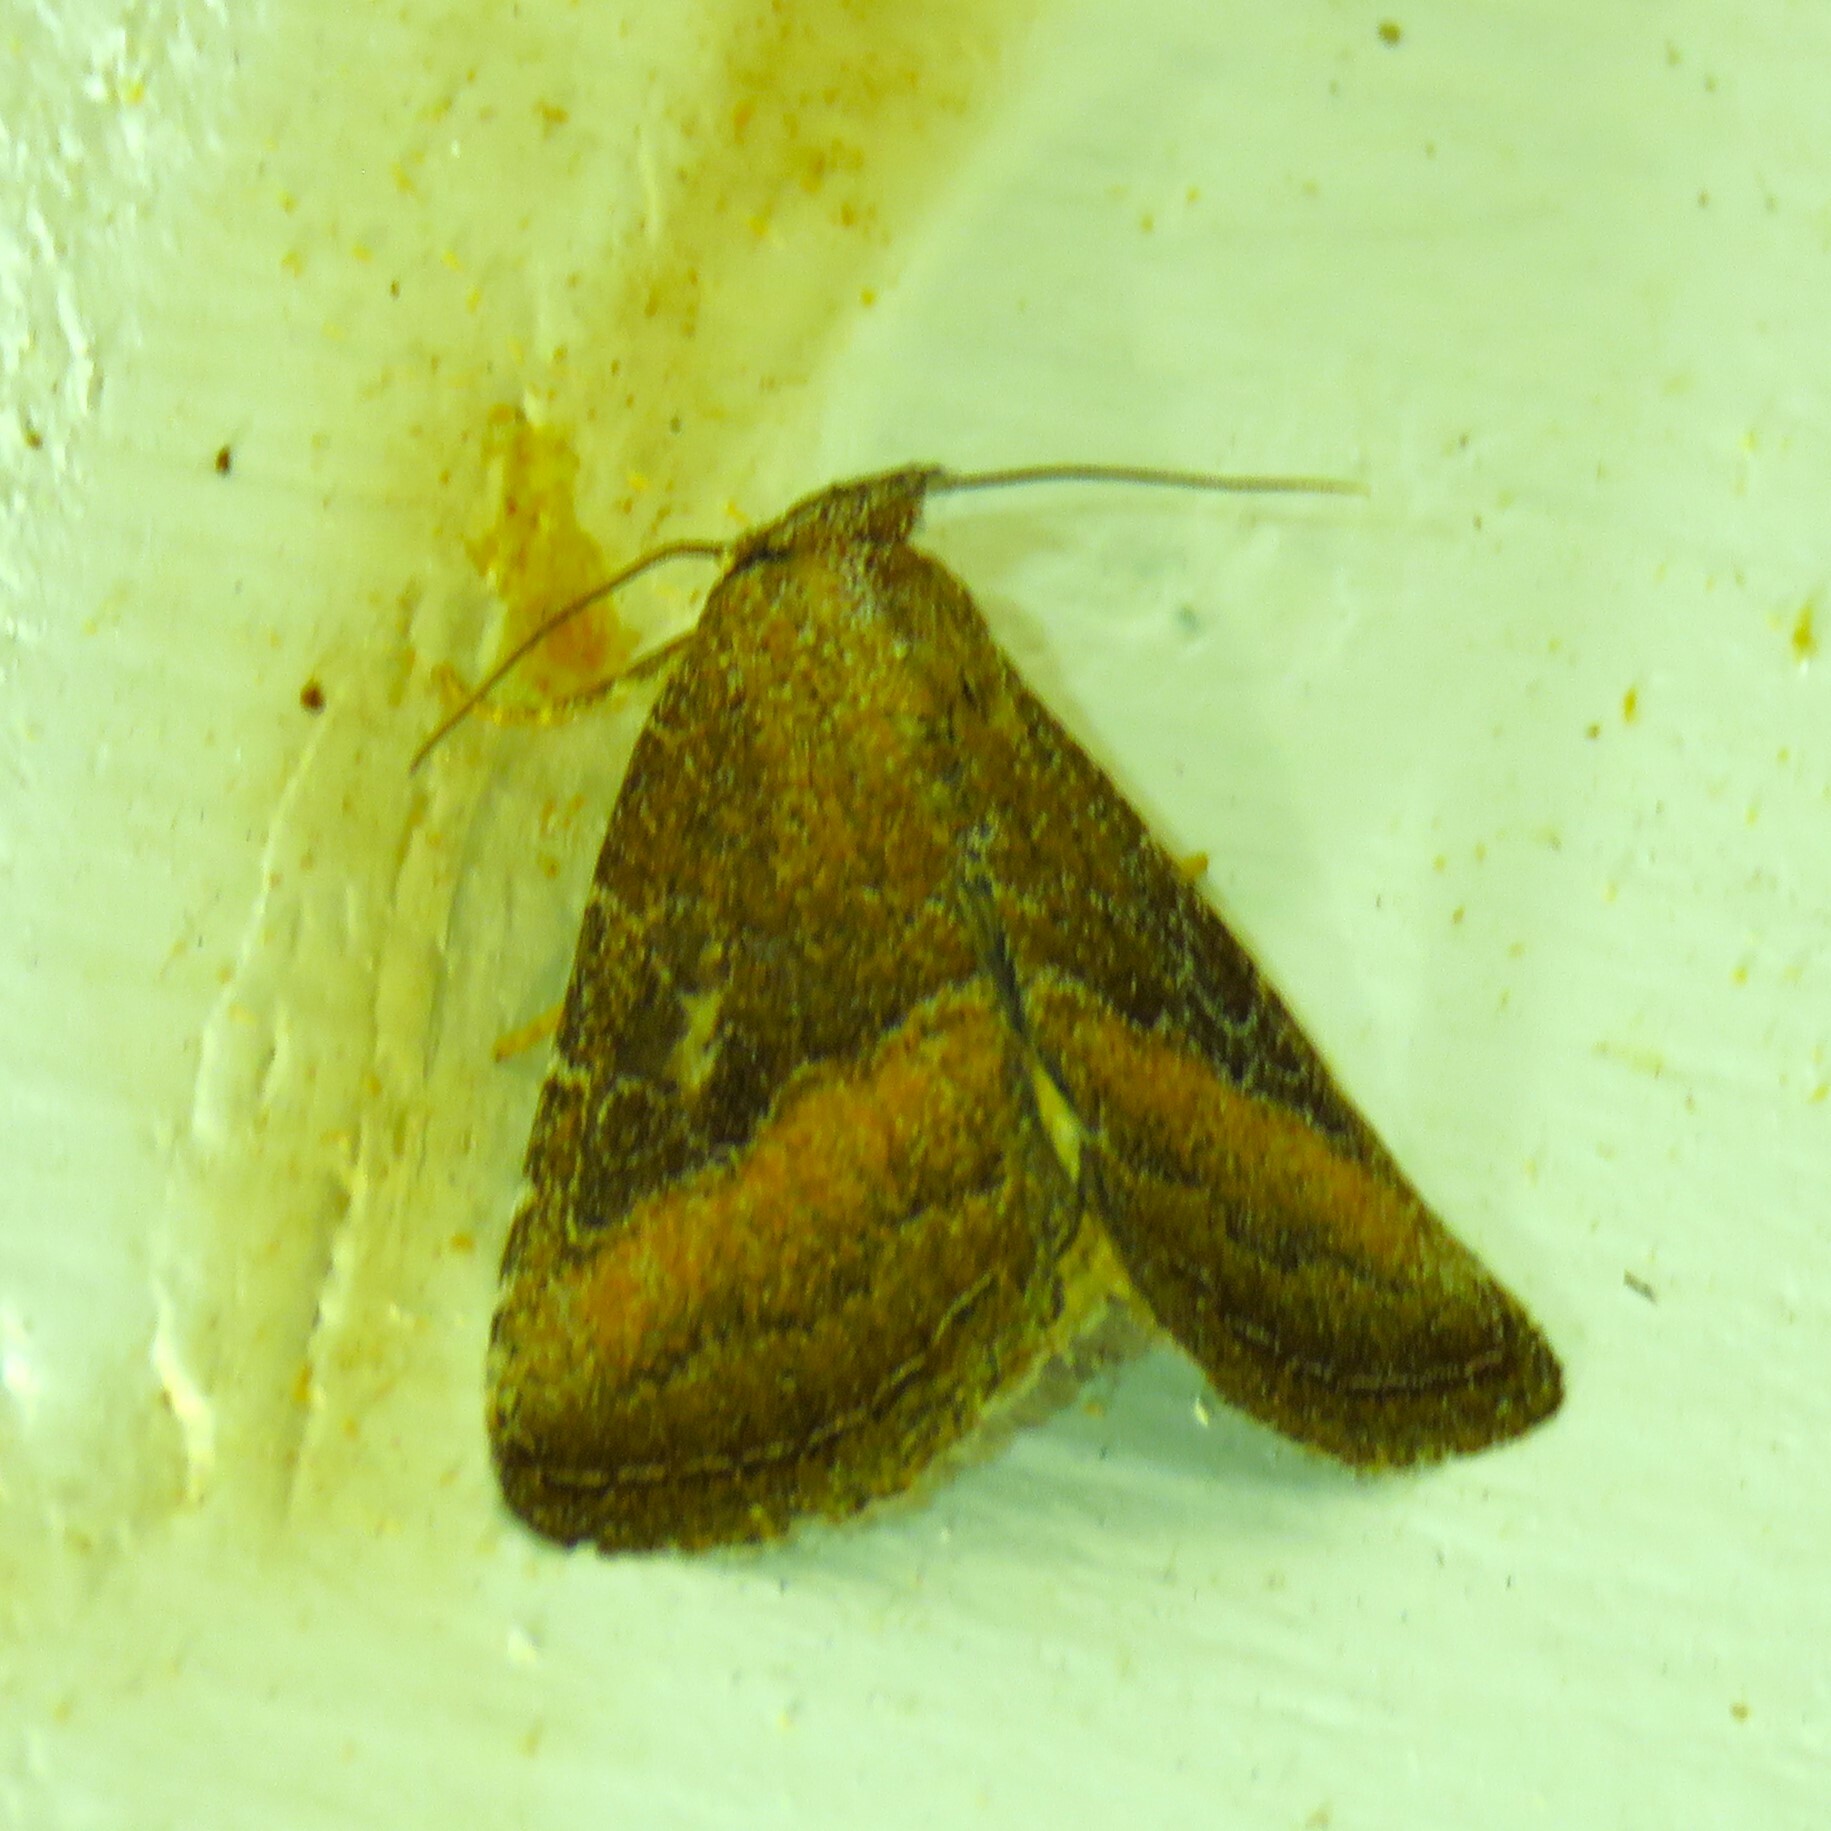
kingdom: Animalia
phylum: Arthropoda
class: Insecta
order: Lepidoptera
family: Noctuidae
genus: Ogdoconta
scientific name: Ogdoconta cinereola
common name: Common pinkband
